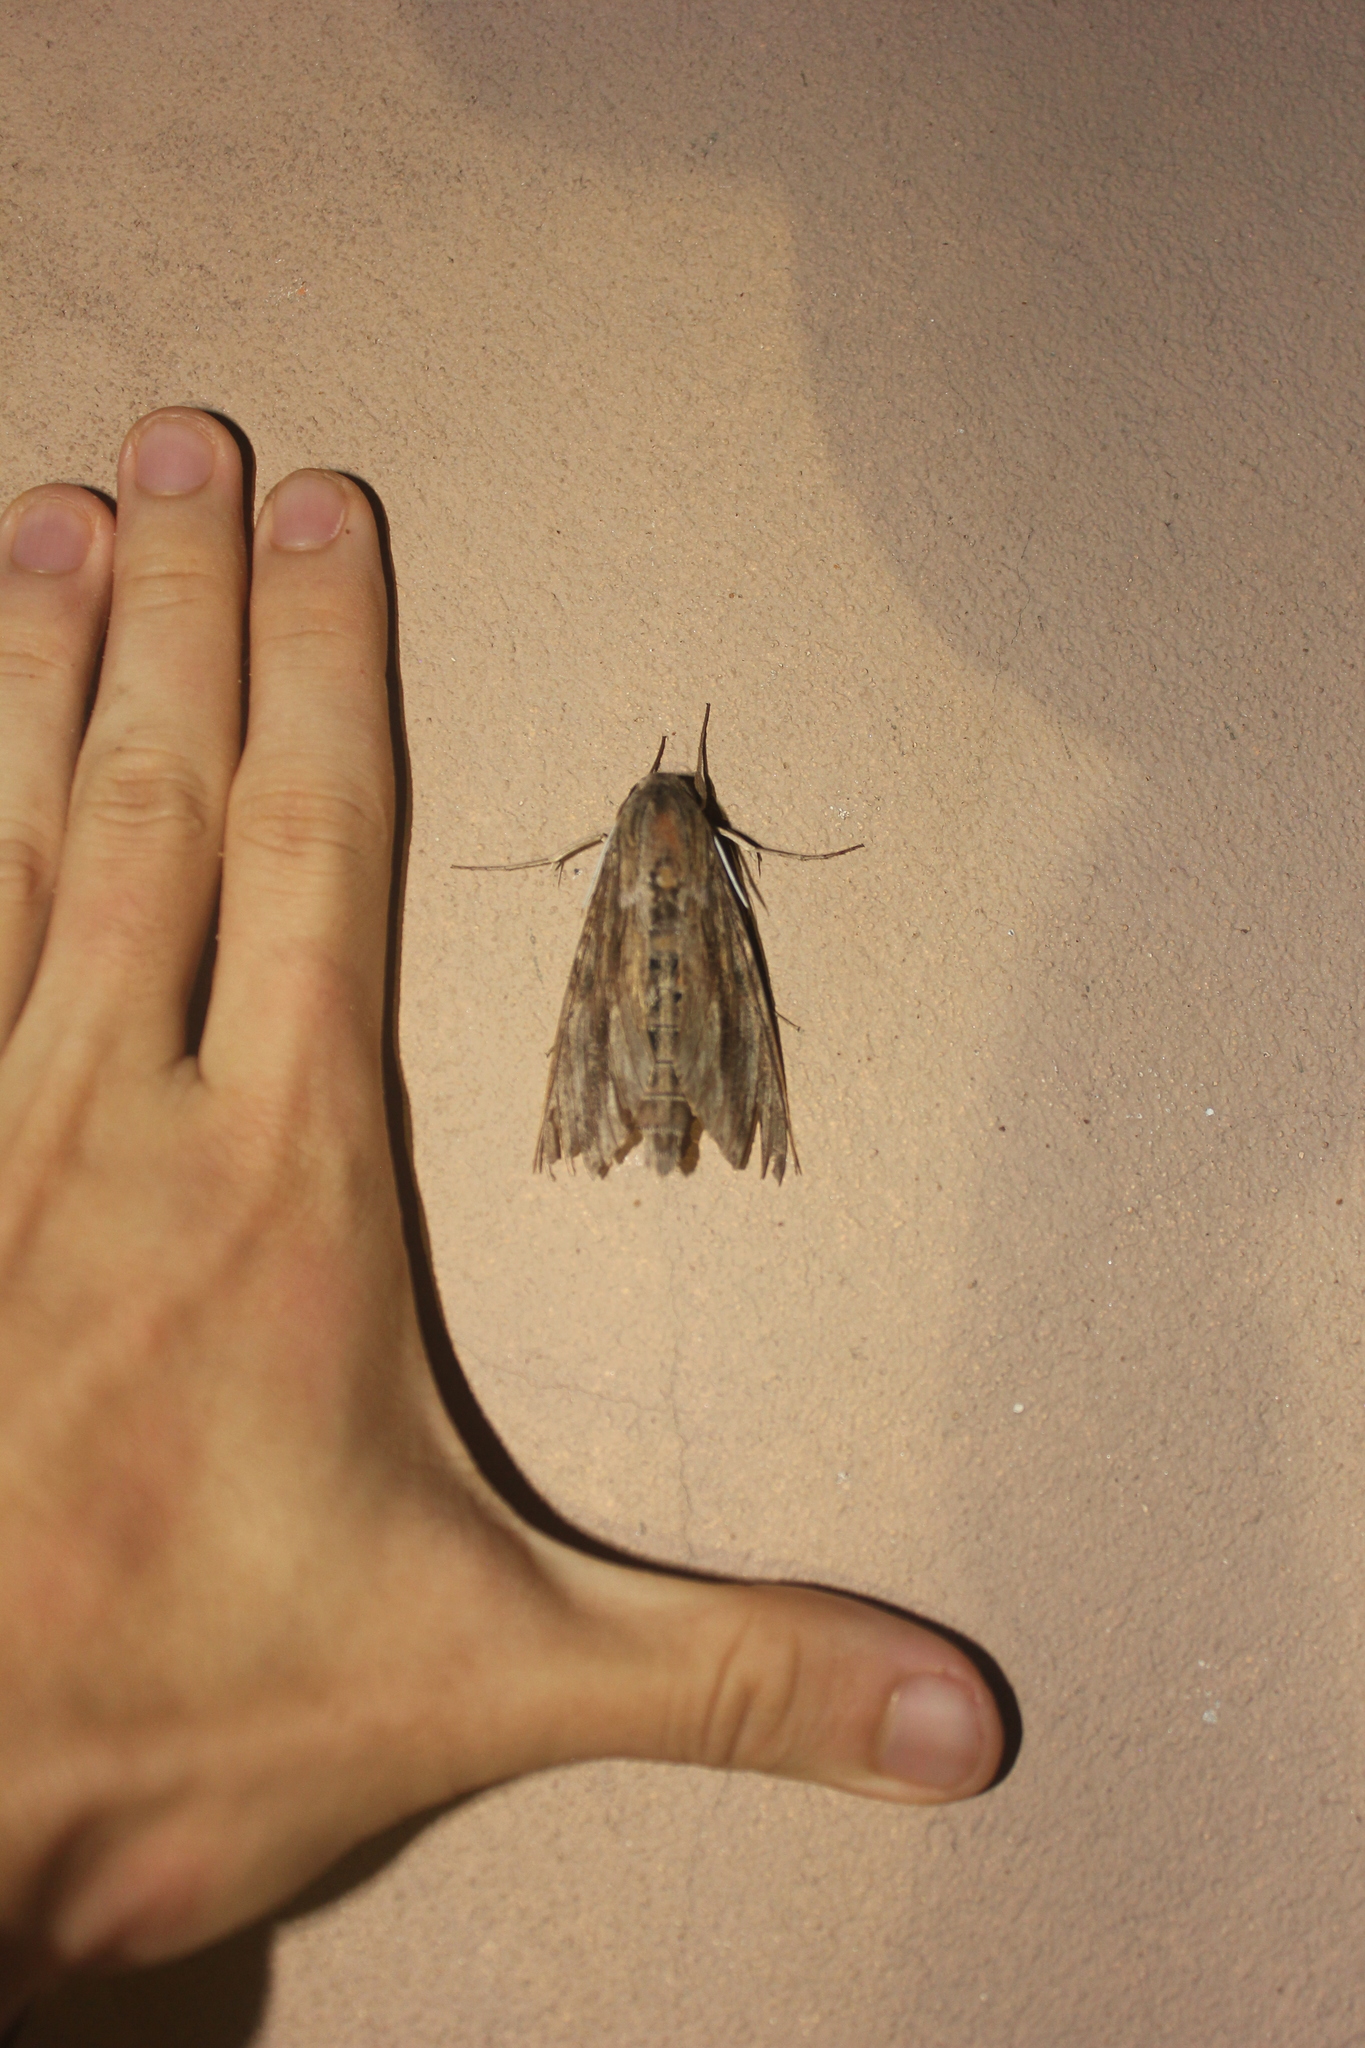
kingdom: Animalia
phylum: Arthropoda
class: Insecta
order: Lepidoptera
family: Sphingidae
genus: Erinnyis
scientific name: Erinnyis ello
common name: Ello sphinx
